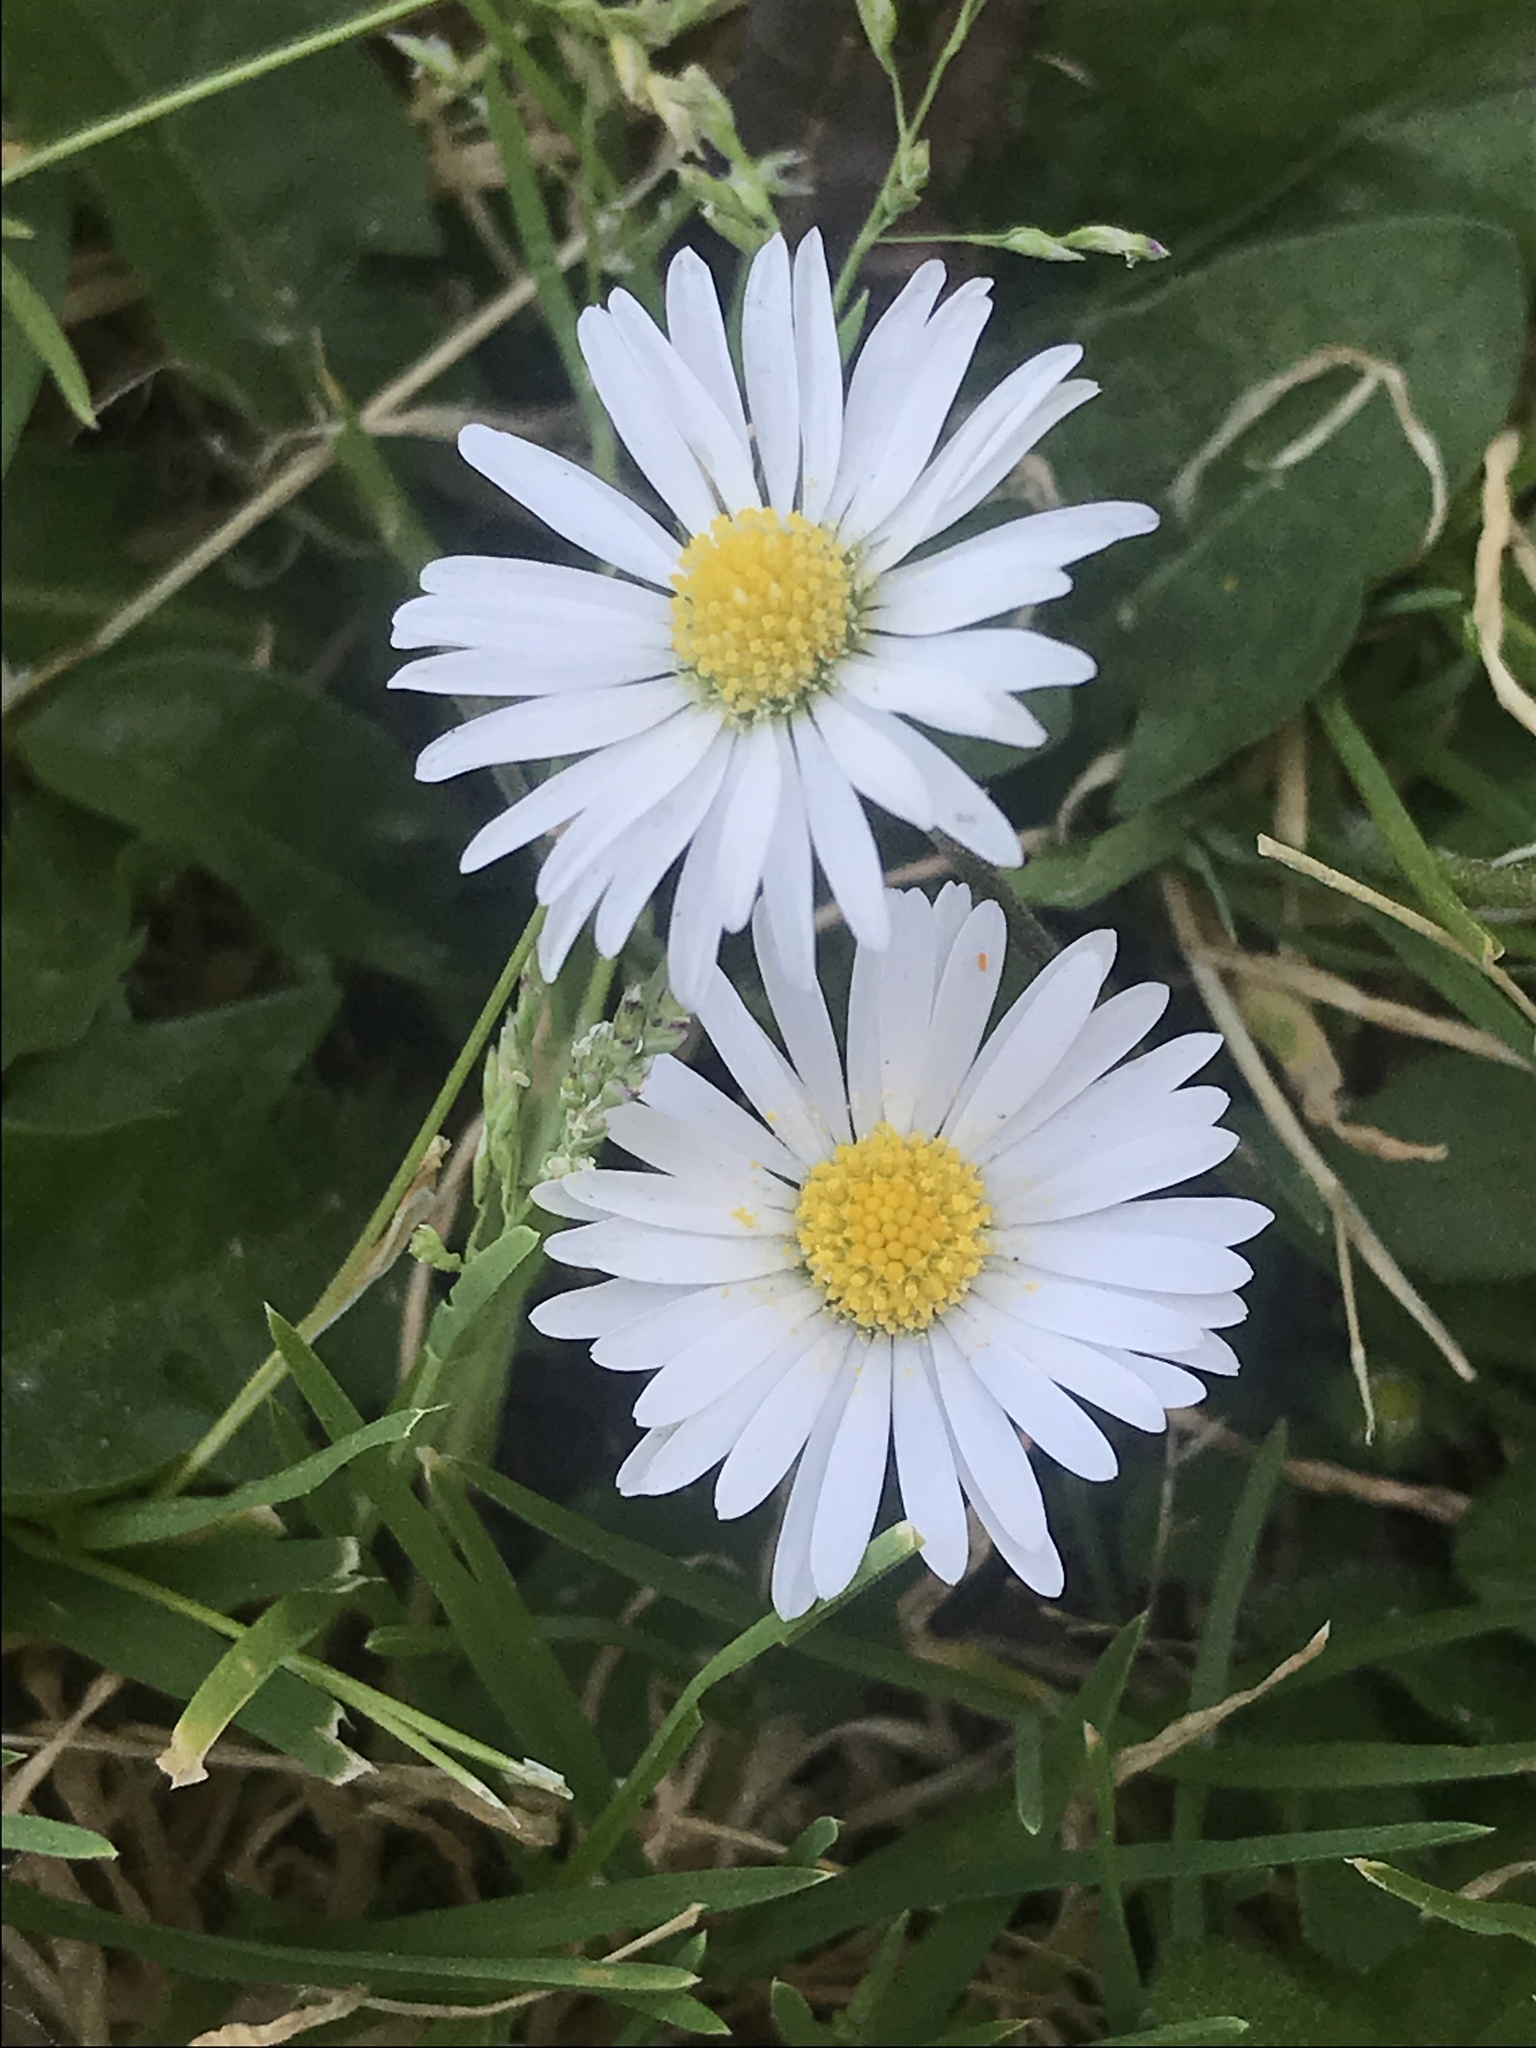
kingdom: Plantae
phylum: Tracheophyta
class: Magnoliopsida
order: Asterales
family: Asteraceae
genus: Bellis
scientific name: Bellis perennis
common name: Lawndaisy
